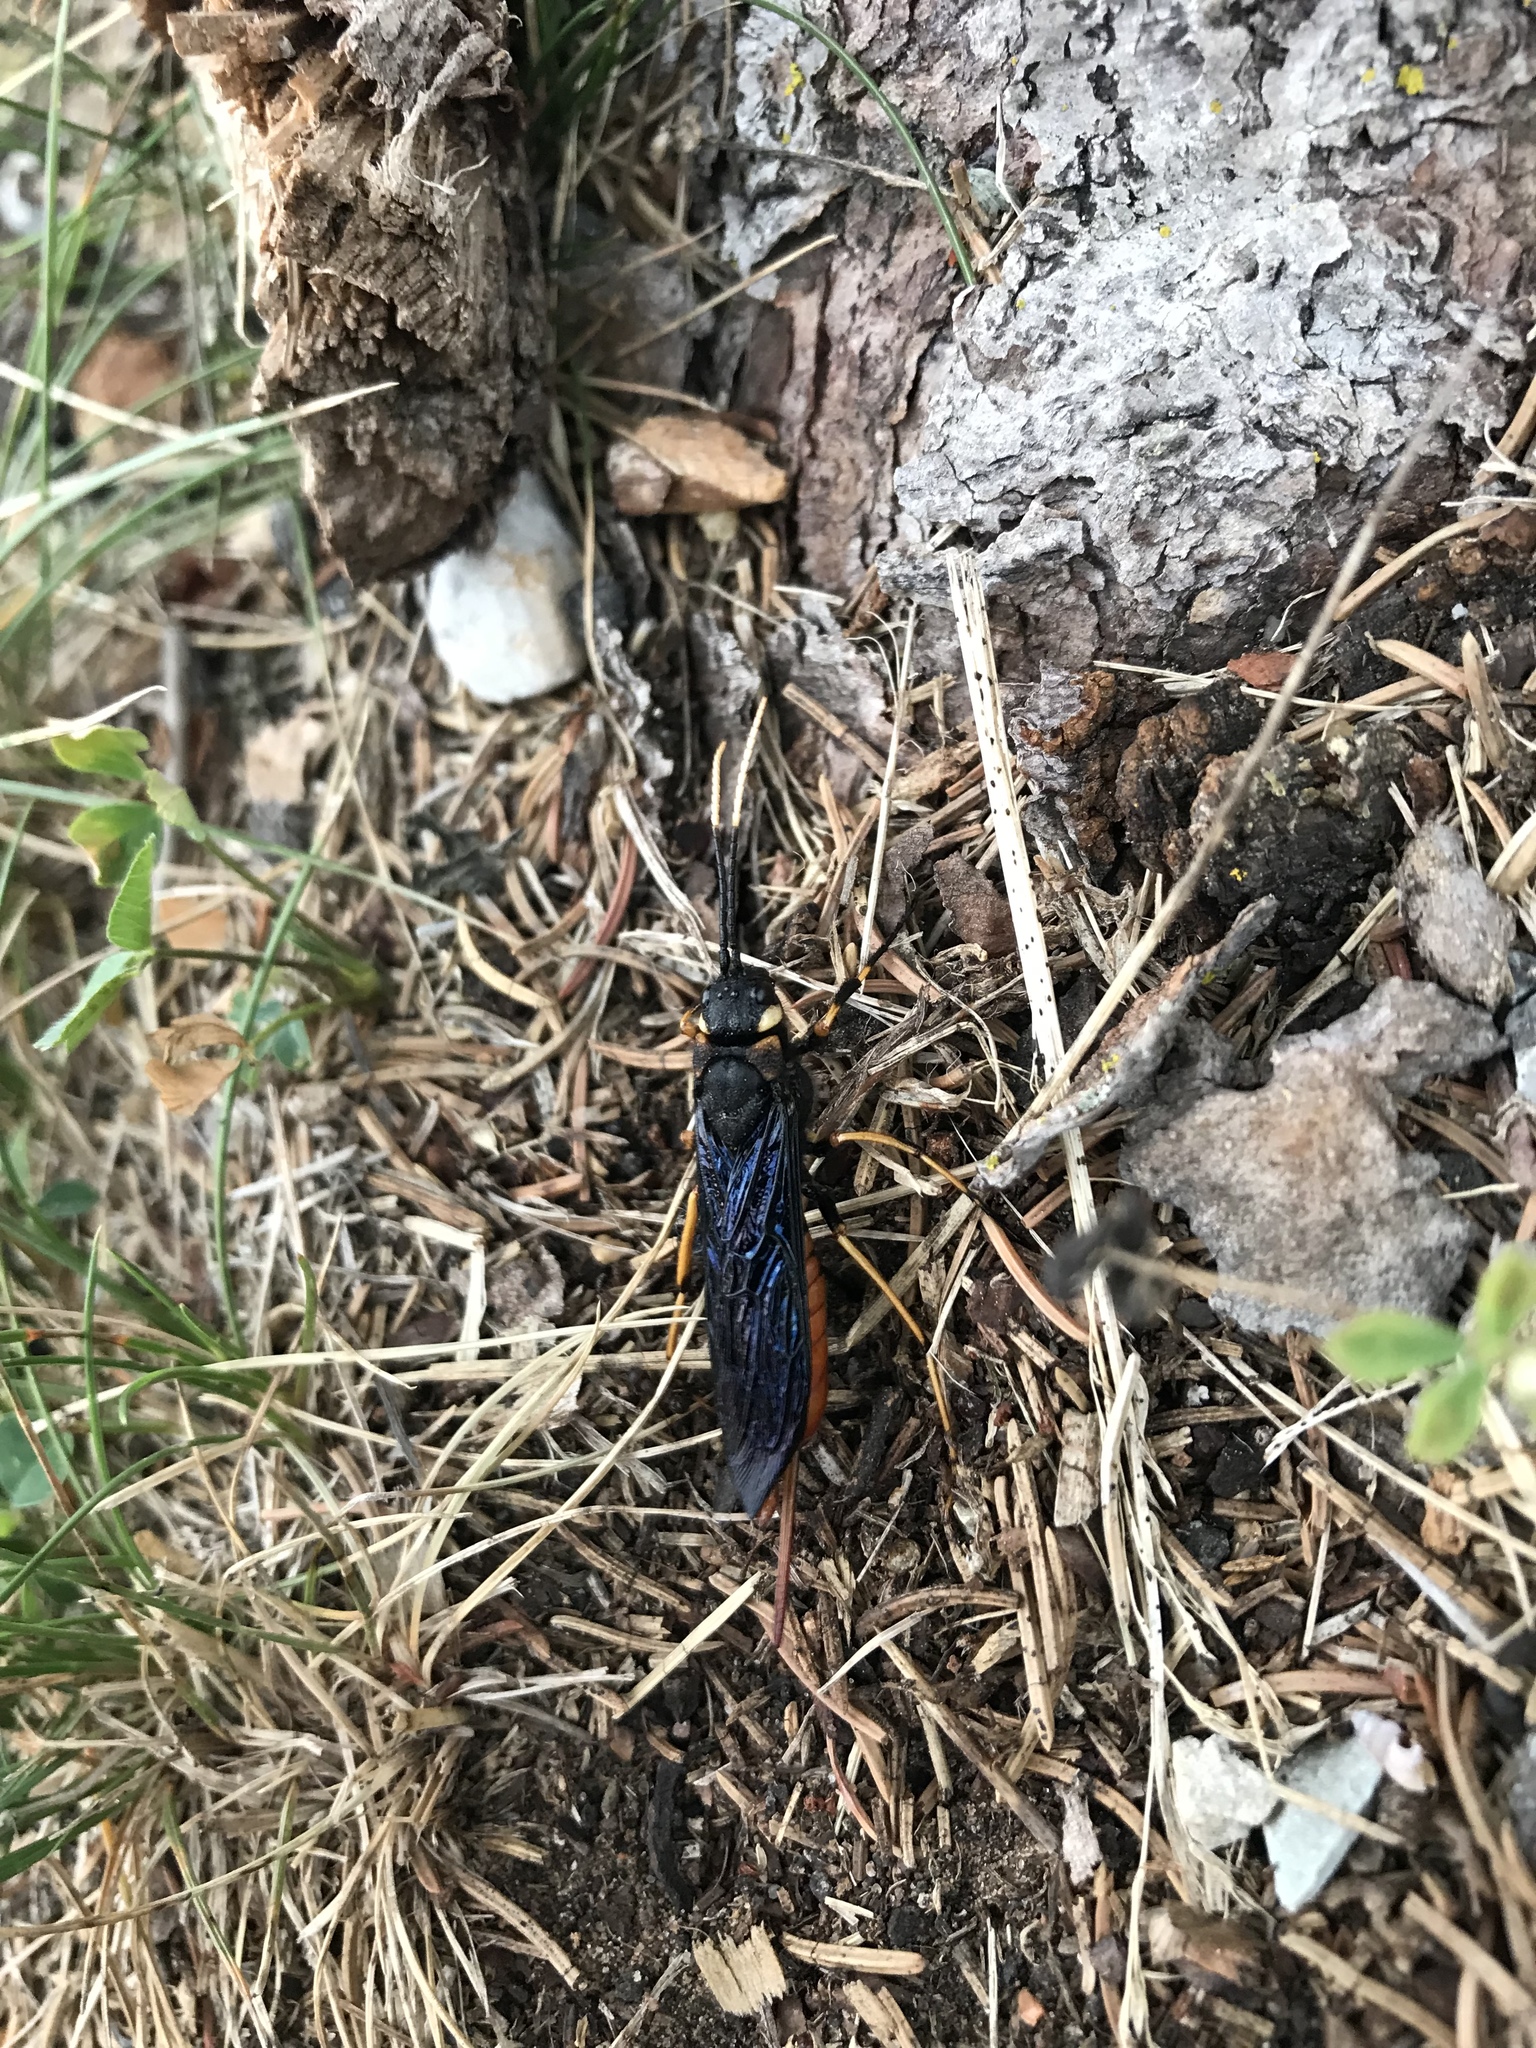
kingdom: Animalia
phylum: Arthropoda
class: Insecta
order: Hymenoptera
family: Siricidae
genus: Urocerus
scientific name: Urocerus cressoni
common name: Black-and-red horntail
